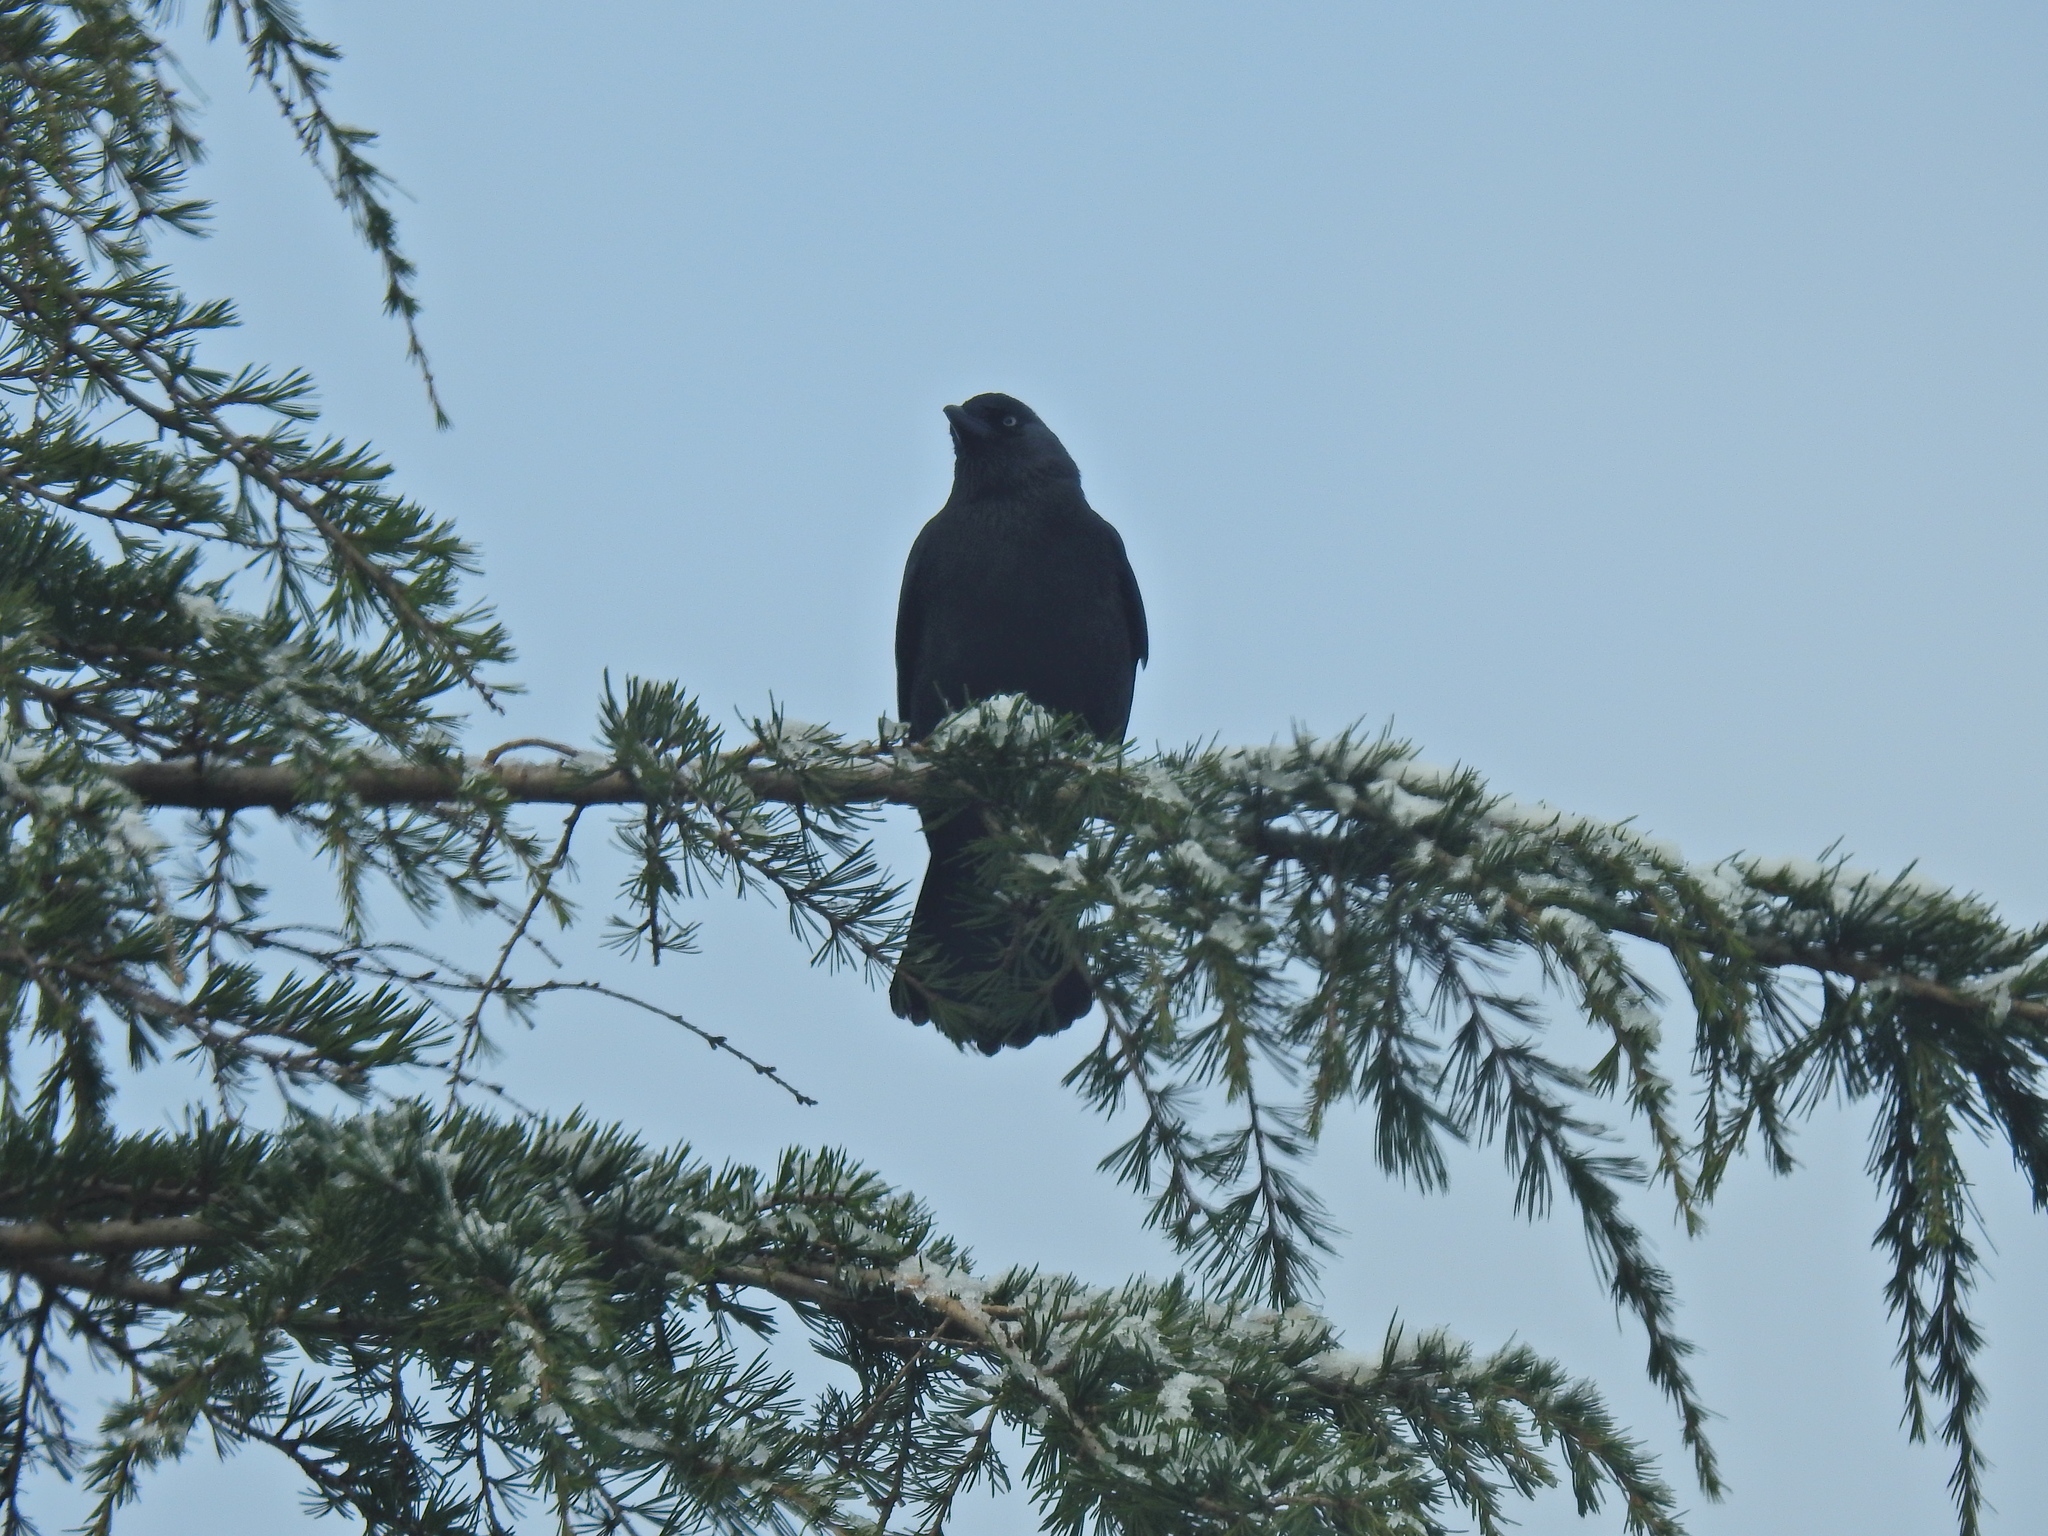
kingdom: Animalia
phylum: Chordata
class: Aves
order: Passeriformes
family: Corvidae
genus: Coloeus
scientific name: Coloeus monedula
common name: Western jackdaw
